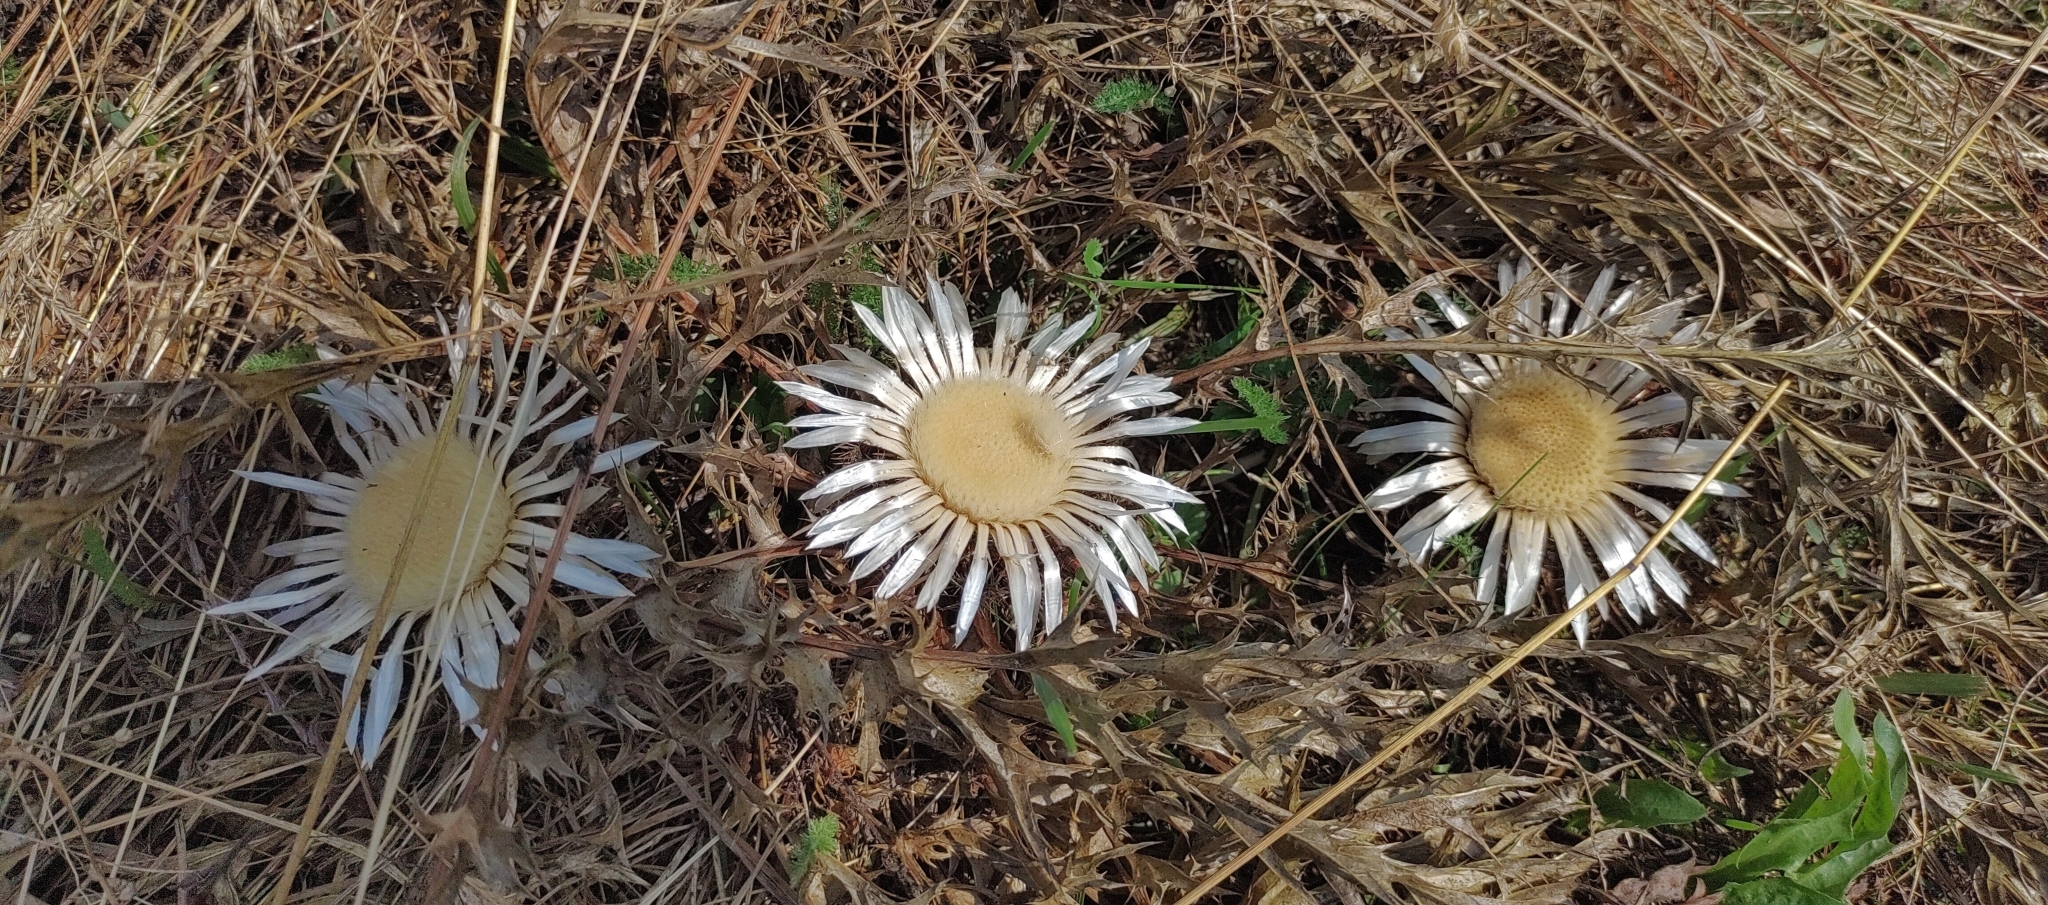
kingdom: Plantae
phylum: Tracheophyta
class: Magnoliopsida
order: Asterales
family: Asteraceae
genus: Carlina
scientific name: Carlina acaulis
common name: Stemless carline thistle
